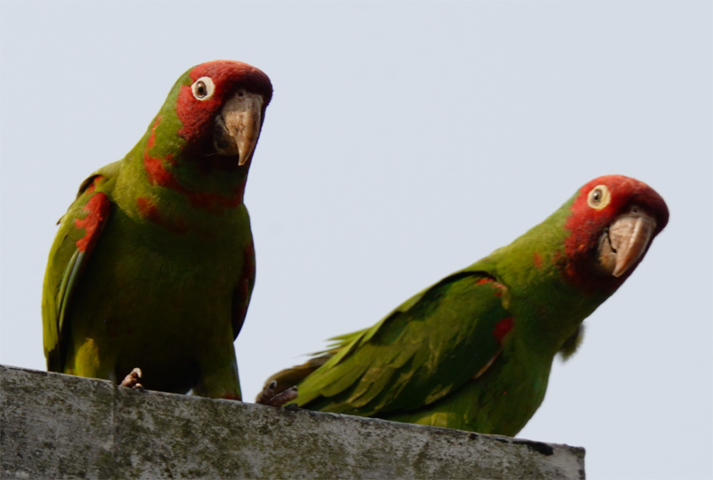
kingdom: Animalia
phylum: Chordata
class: Aves
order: Psittaciformes
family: Psittacidae
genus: Aratinga
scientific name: Aratinga erythrogenys
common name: Red-masked parakeet
